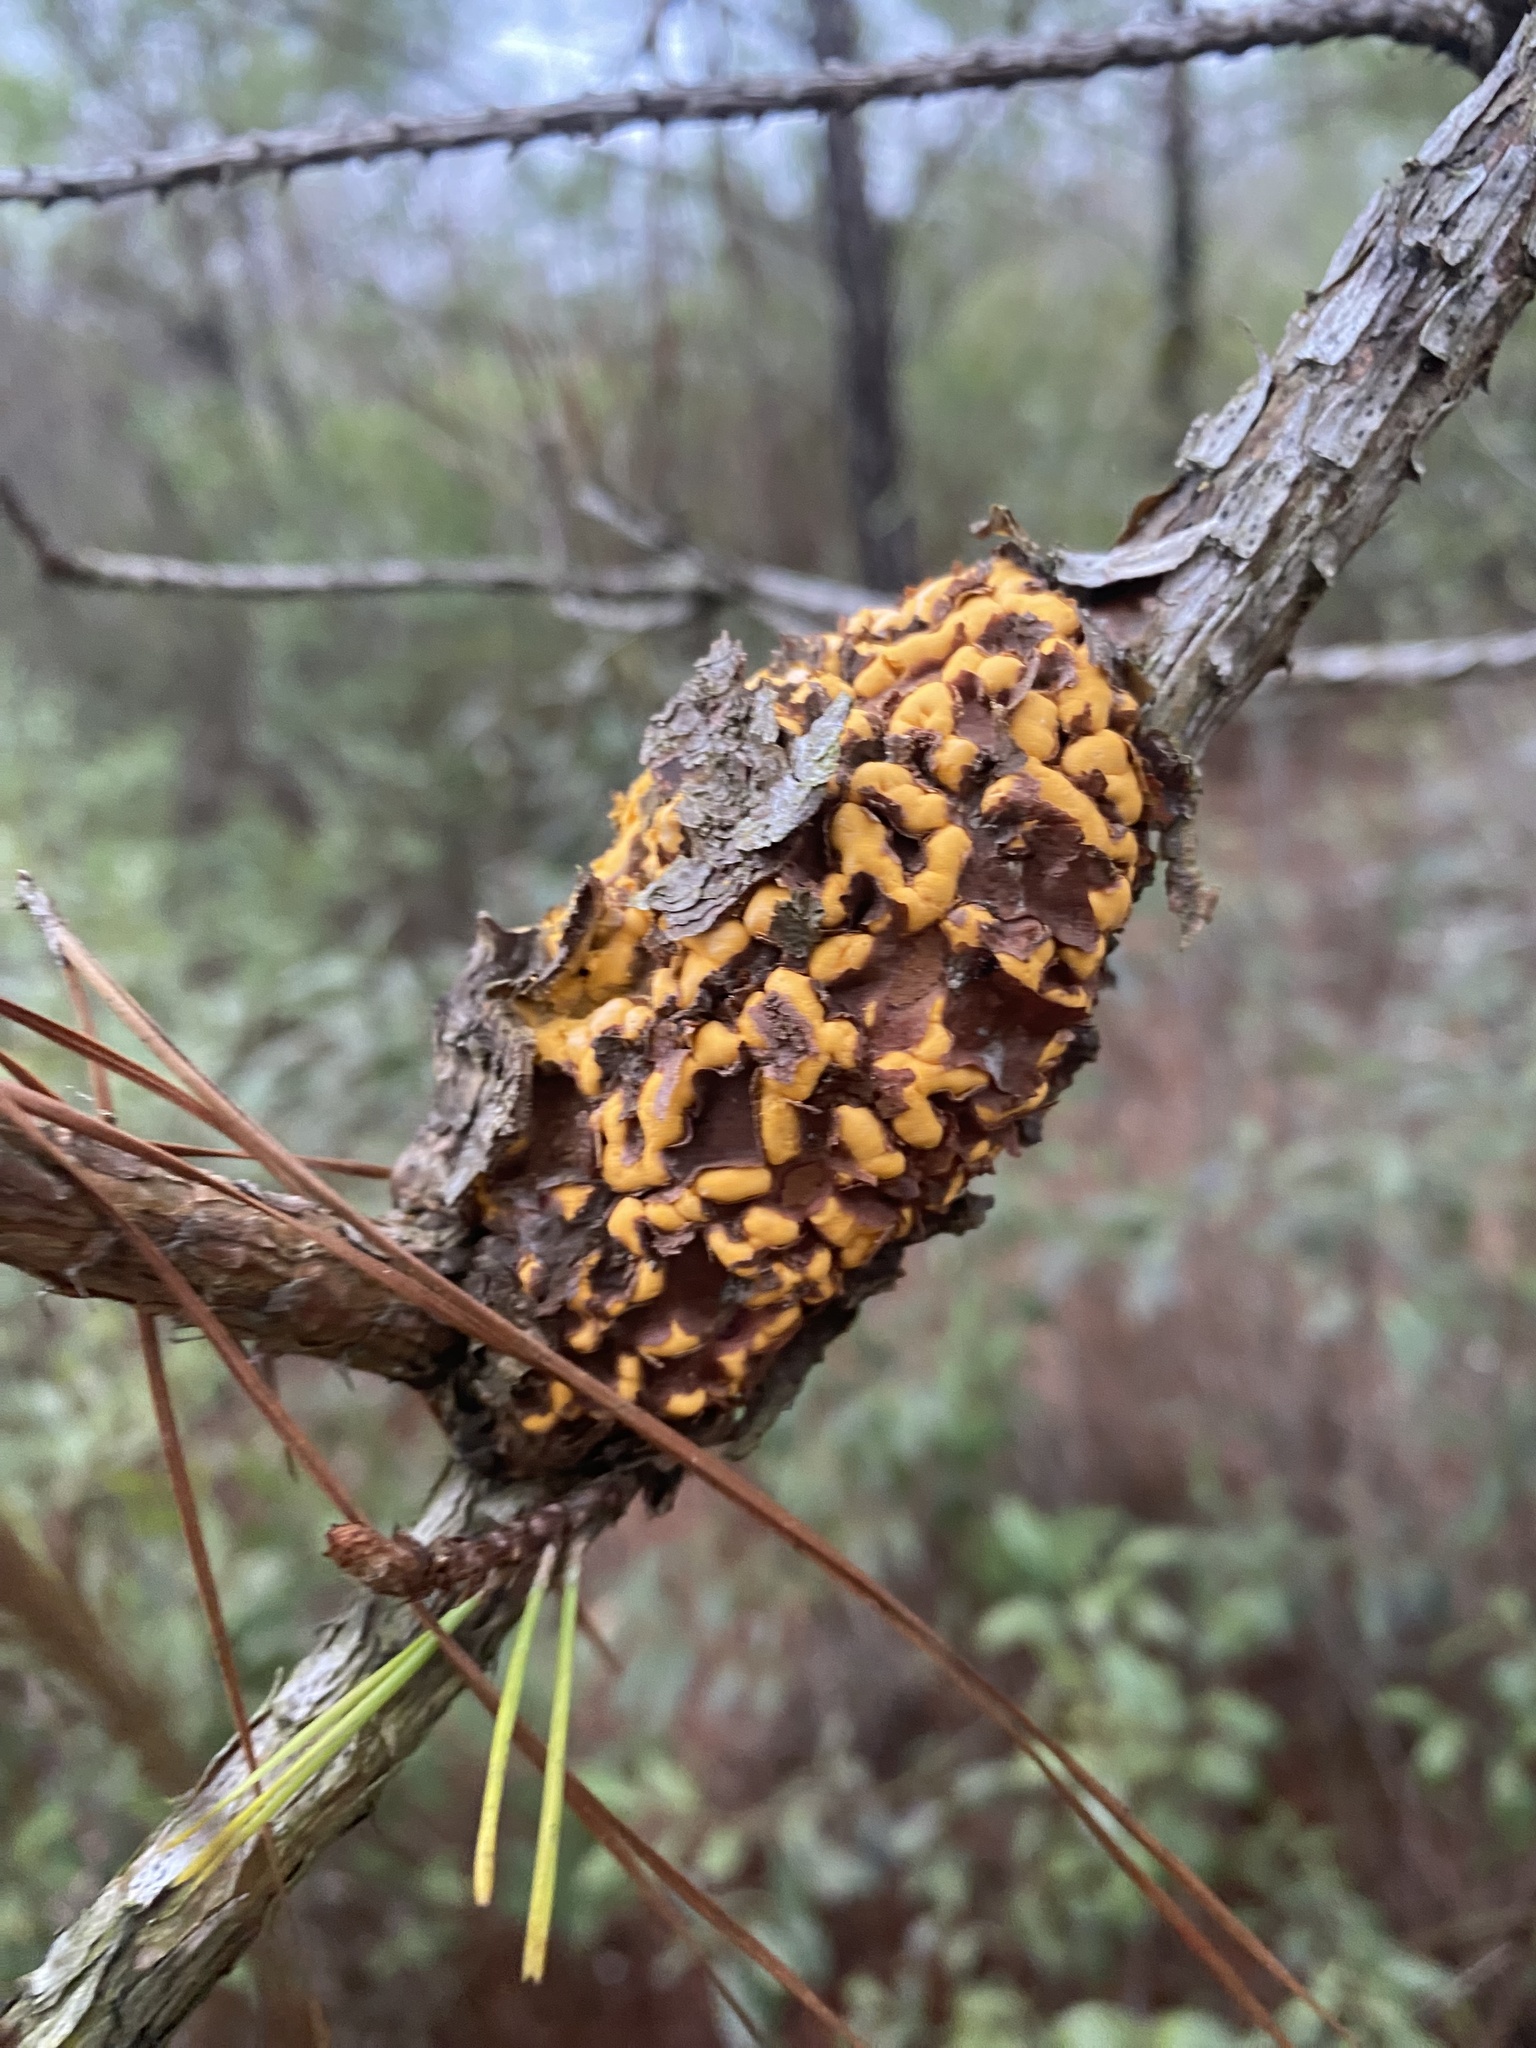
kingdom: Fungi
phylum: Basidiomycota
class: Pucciniomycetes
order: Pucciniales
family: Cronartiaceae
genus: Cronartium
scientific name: Cronartium quercuum
